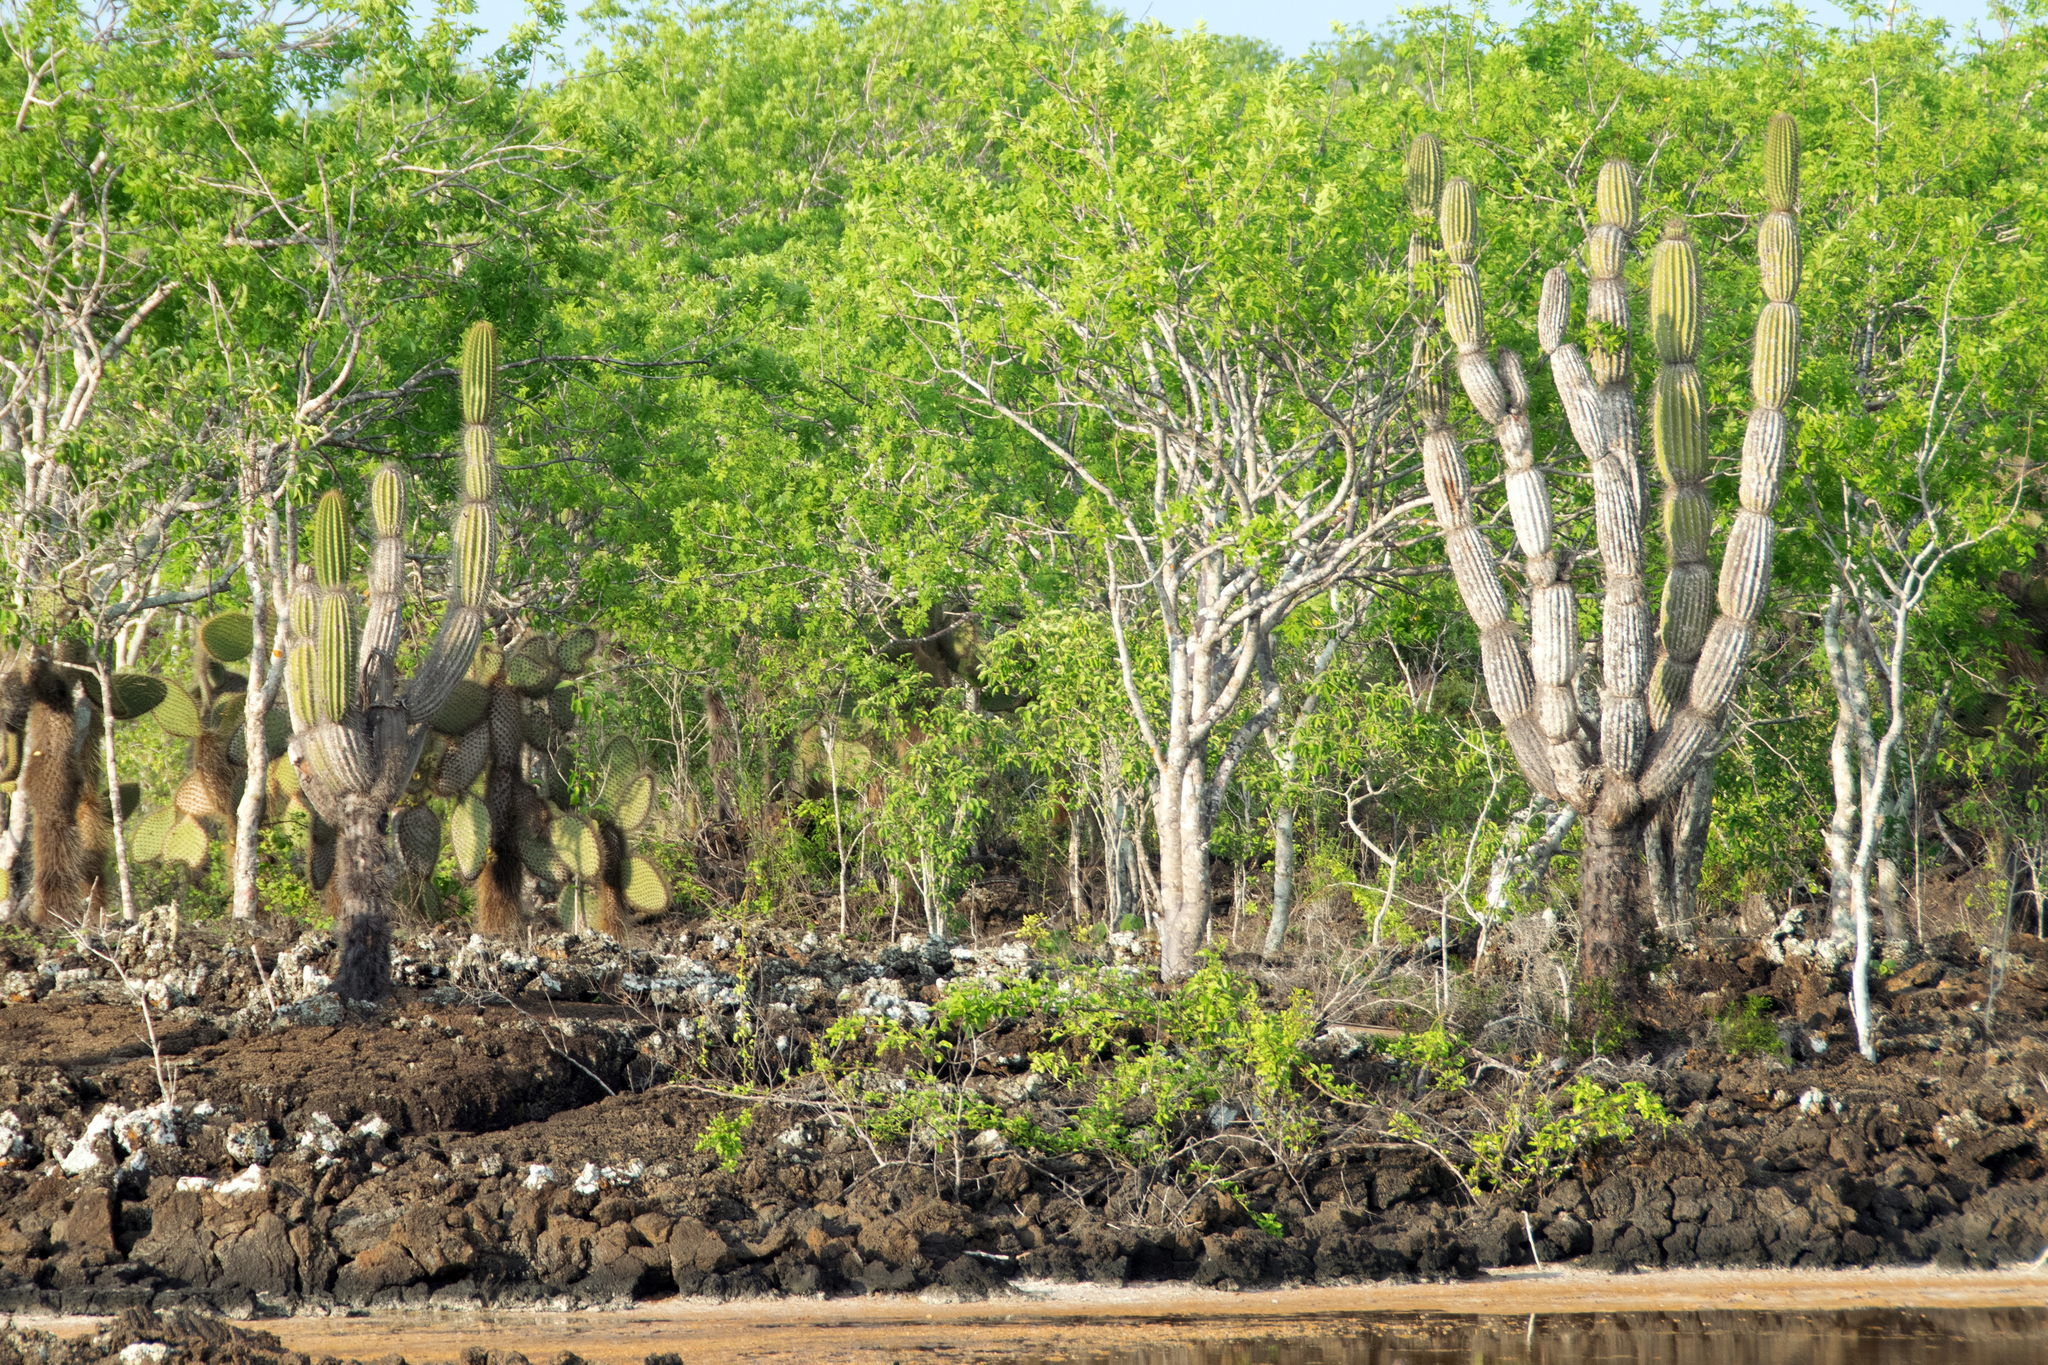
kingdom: Plantae
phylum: Tracheophyta
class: Magnoliopsida
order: Caryophyllales
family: Cactaceae
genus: Jasminocereus
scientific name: Jasminocereus thouarsii
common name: Candelabra cactus
